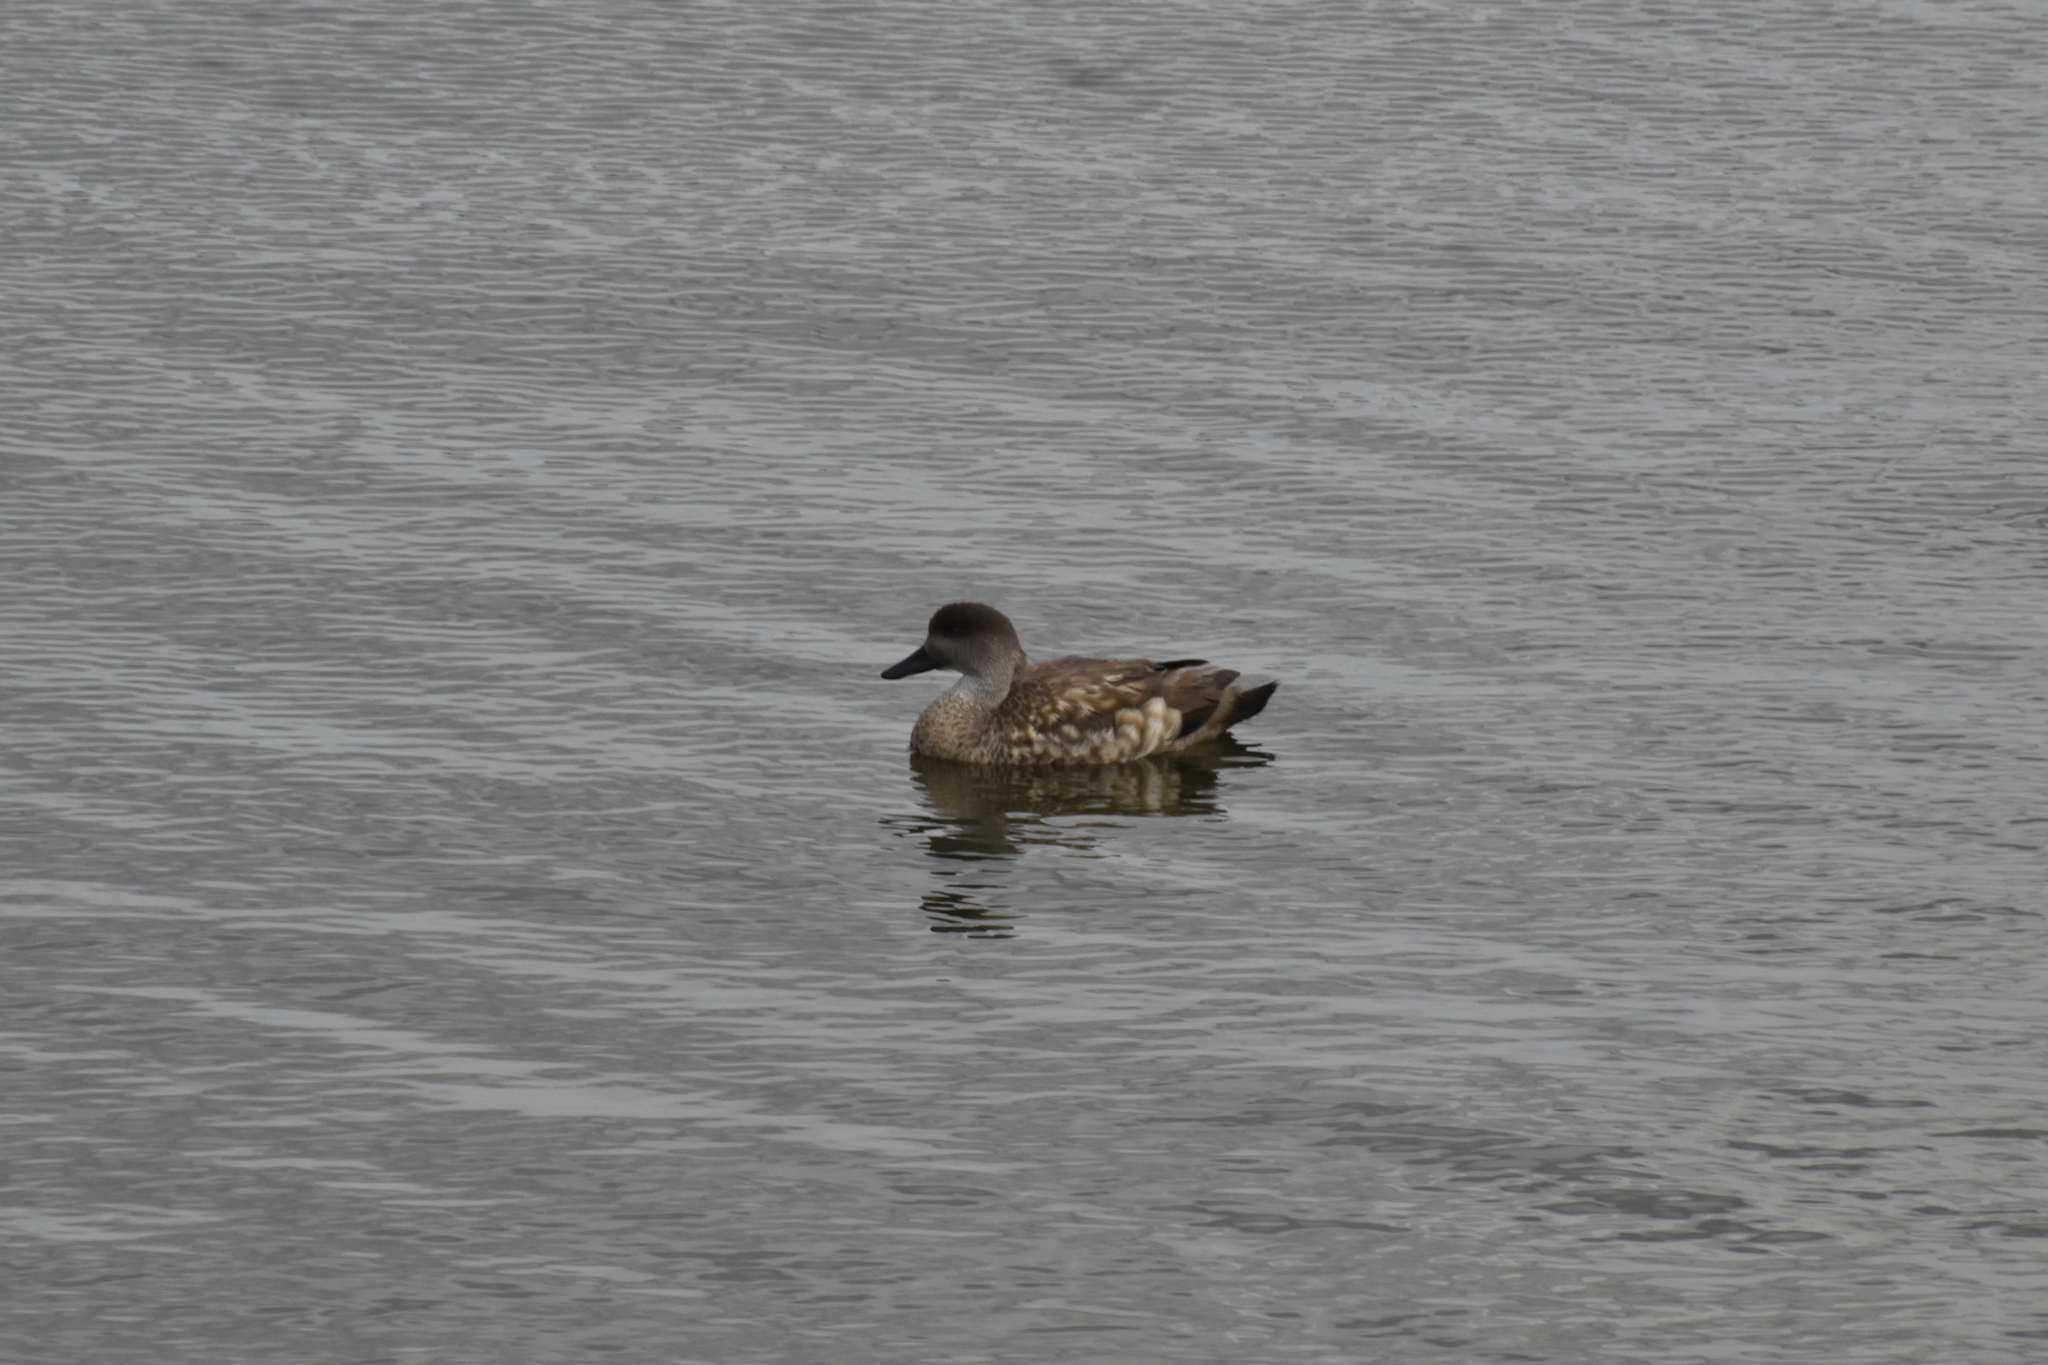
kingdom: Animalia
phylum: Chordata
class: Aves
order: Anseriformes
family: Anatidae
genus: Lophonetta
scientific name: Lophonetta specularioides
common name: Crested duck
